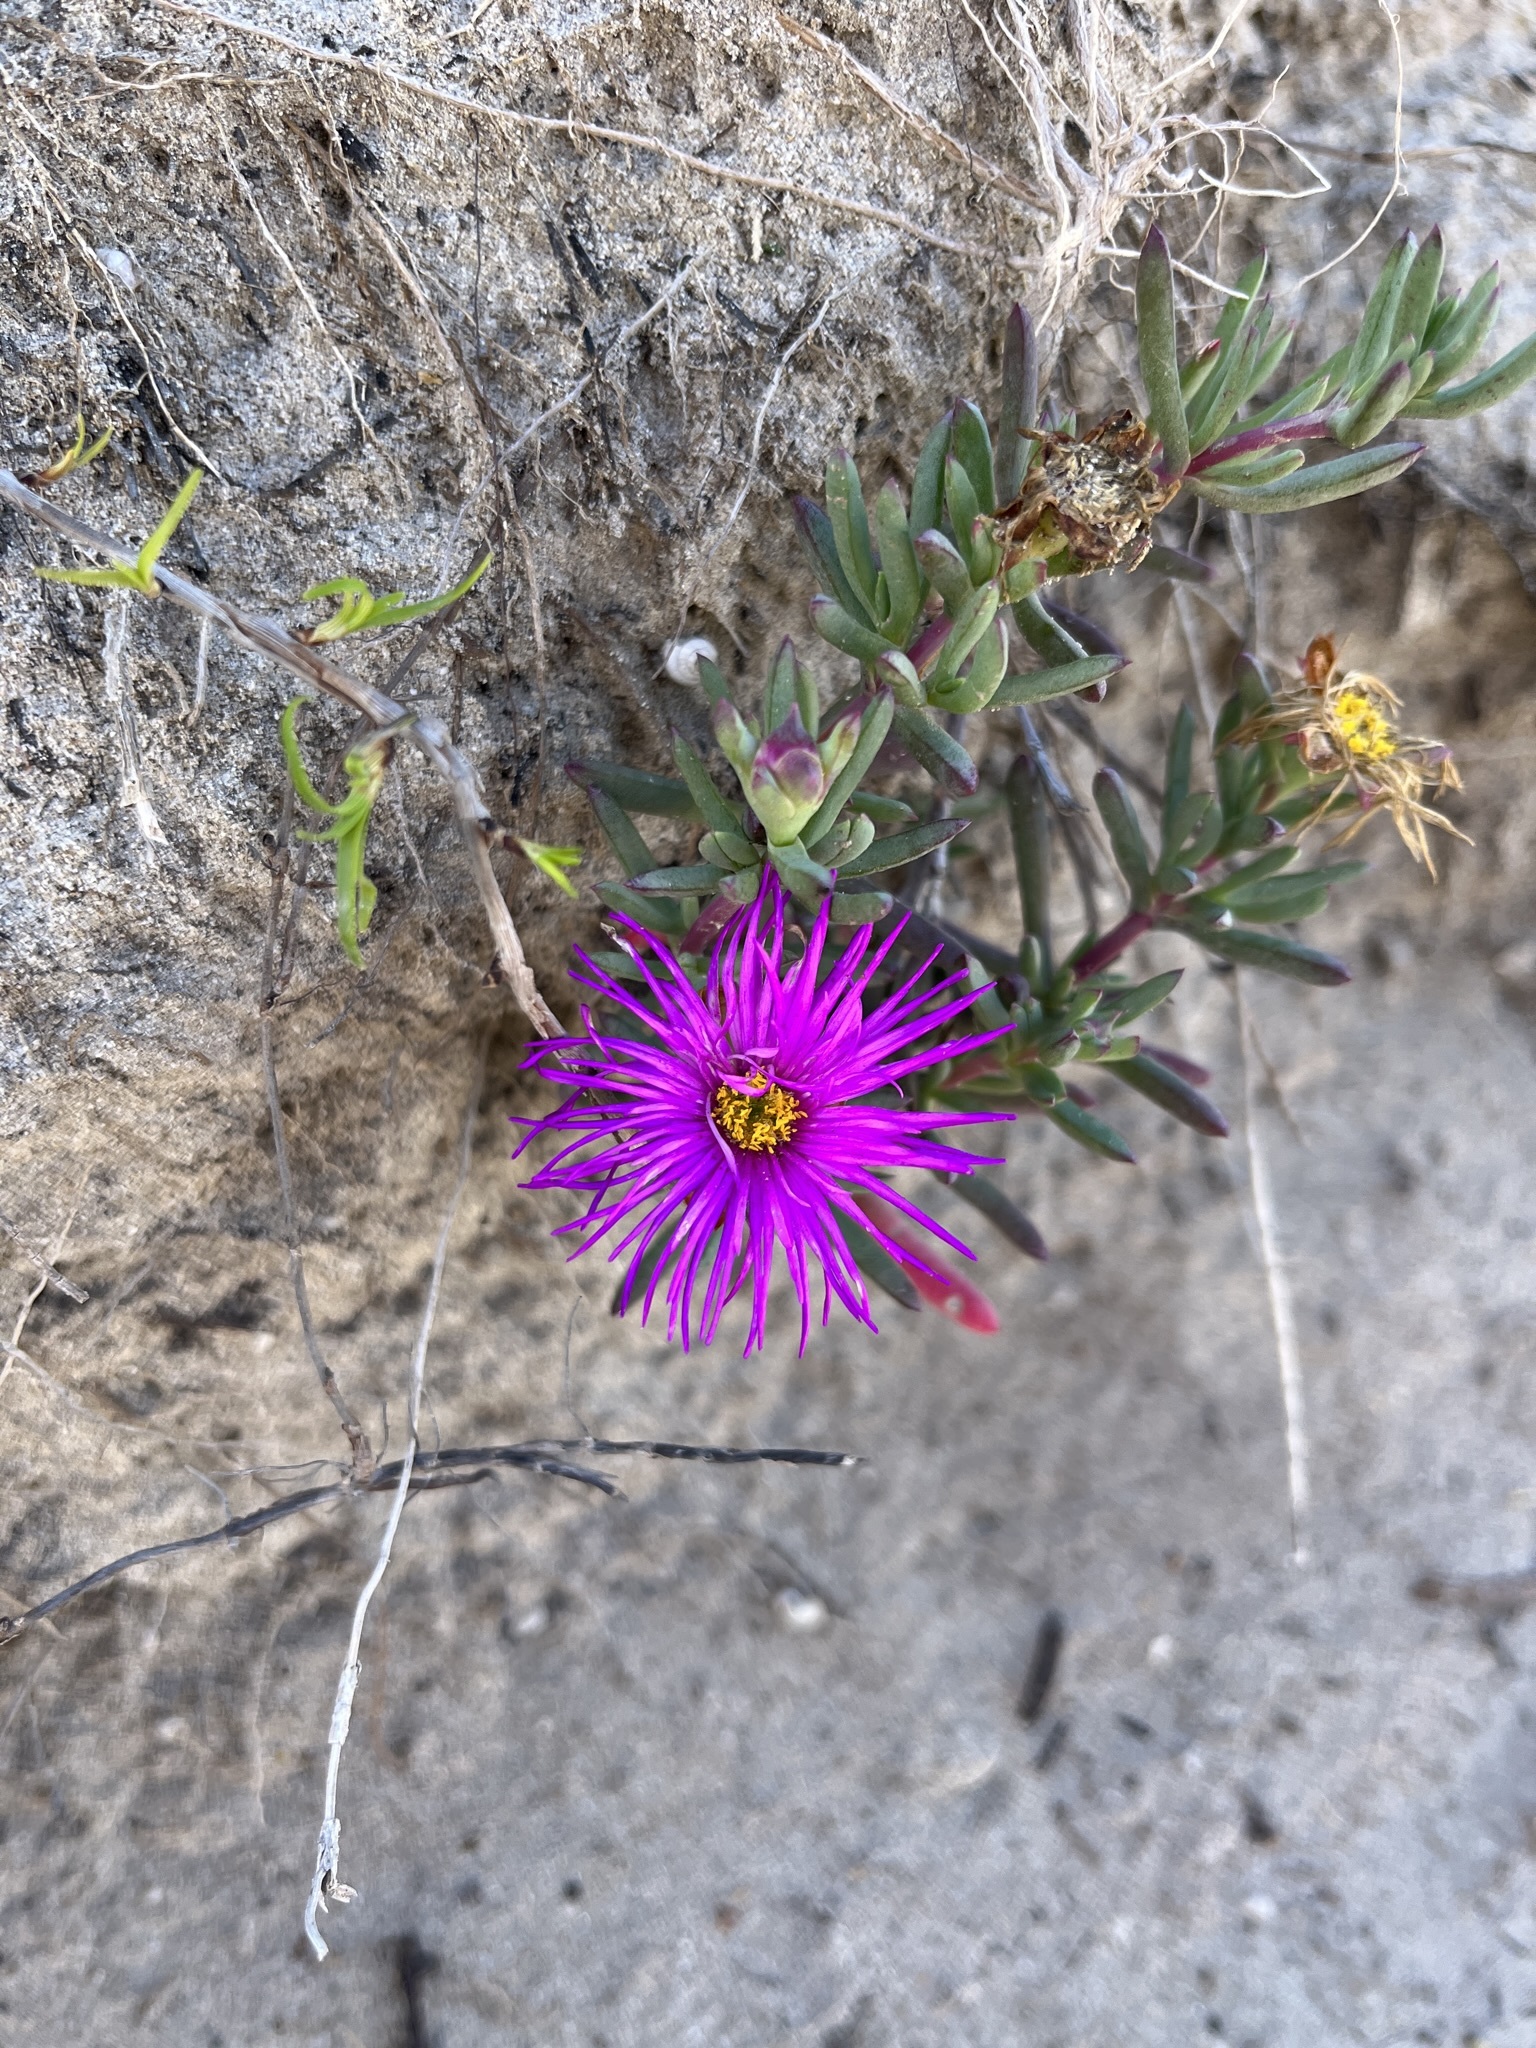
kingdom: Plantae
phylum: Tracheophyta
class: Magnoliopsida
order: Caryophyllales
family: Aizoaceae
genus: Lampranthus
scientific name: Lampranthus ceriseus
